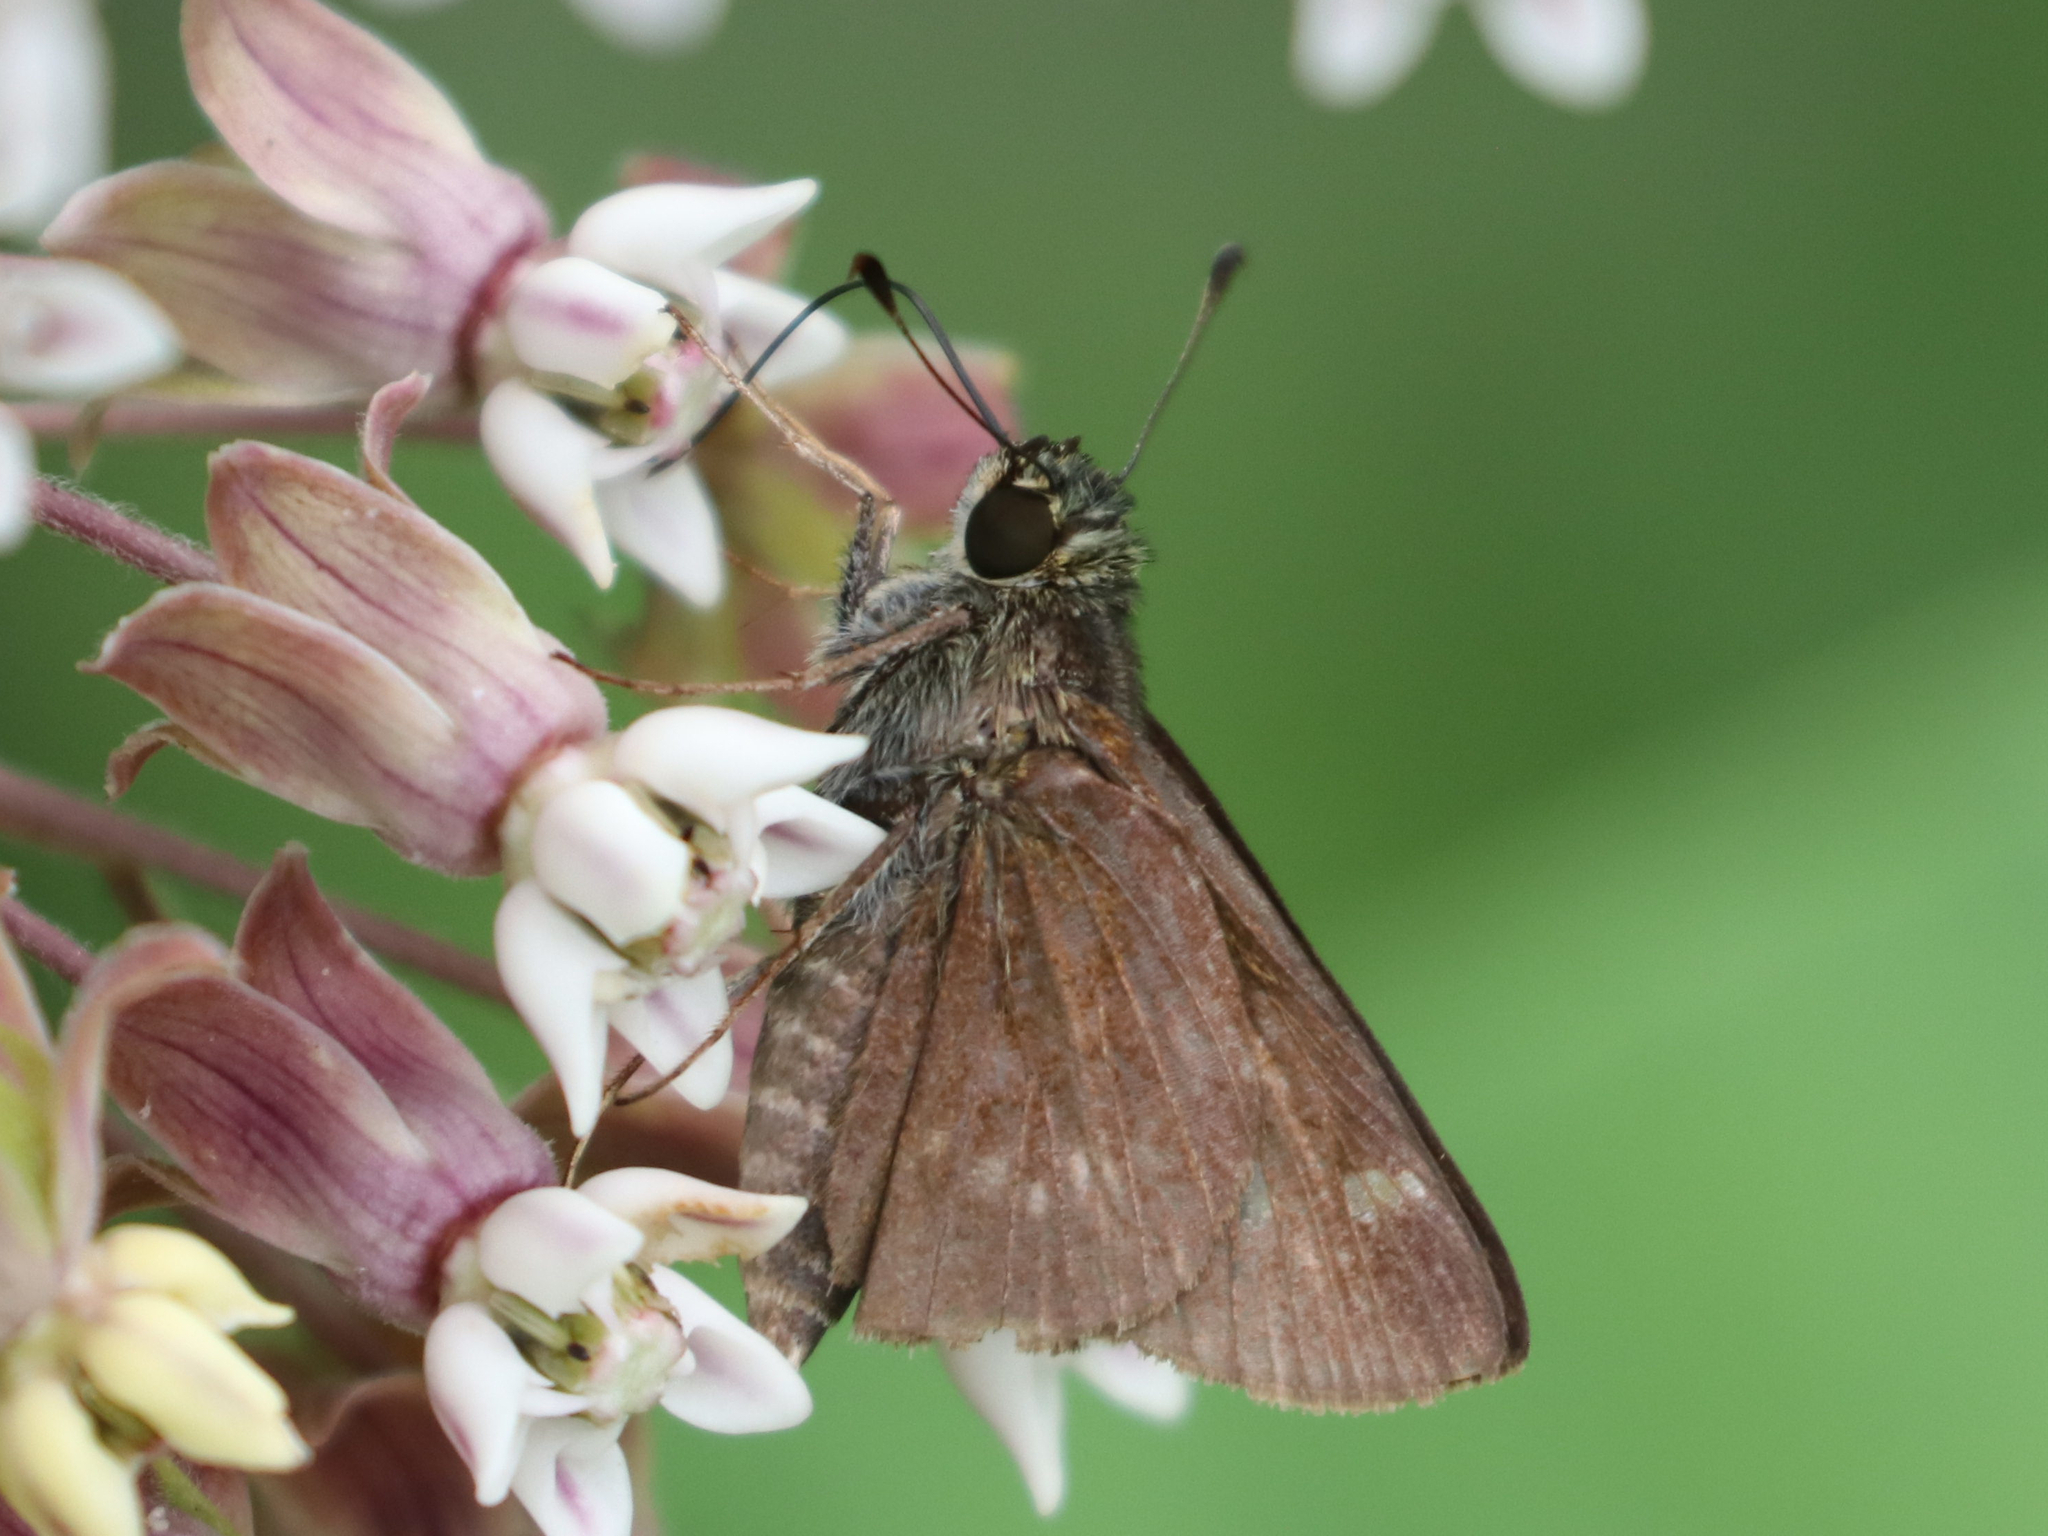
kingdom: Animalia
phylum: Arthropoda
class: Insecta
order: Lepidoptera
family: Hesperiidae
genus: Vernia
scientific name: Vernia verna
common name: Little glassywing
